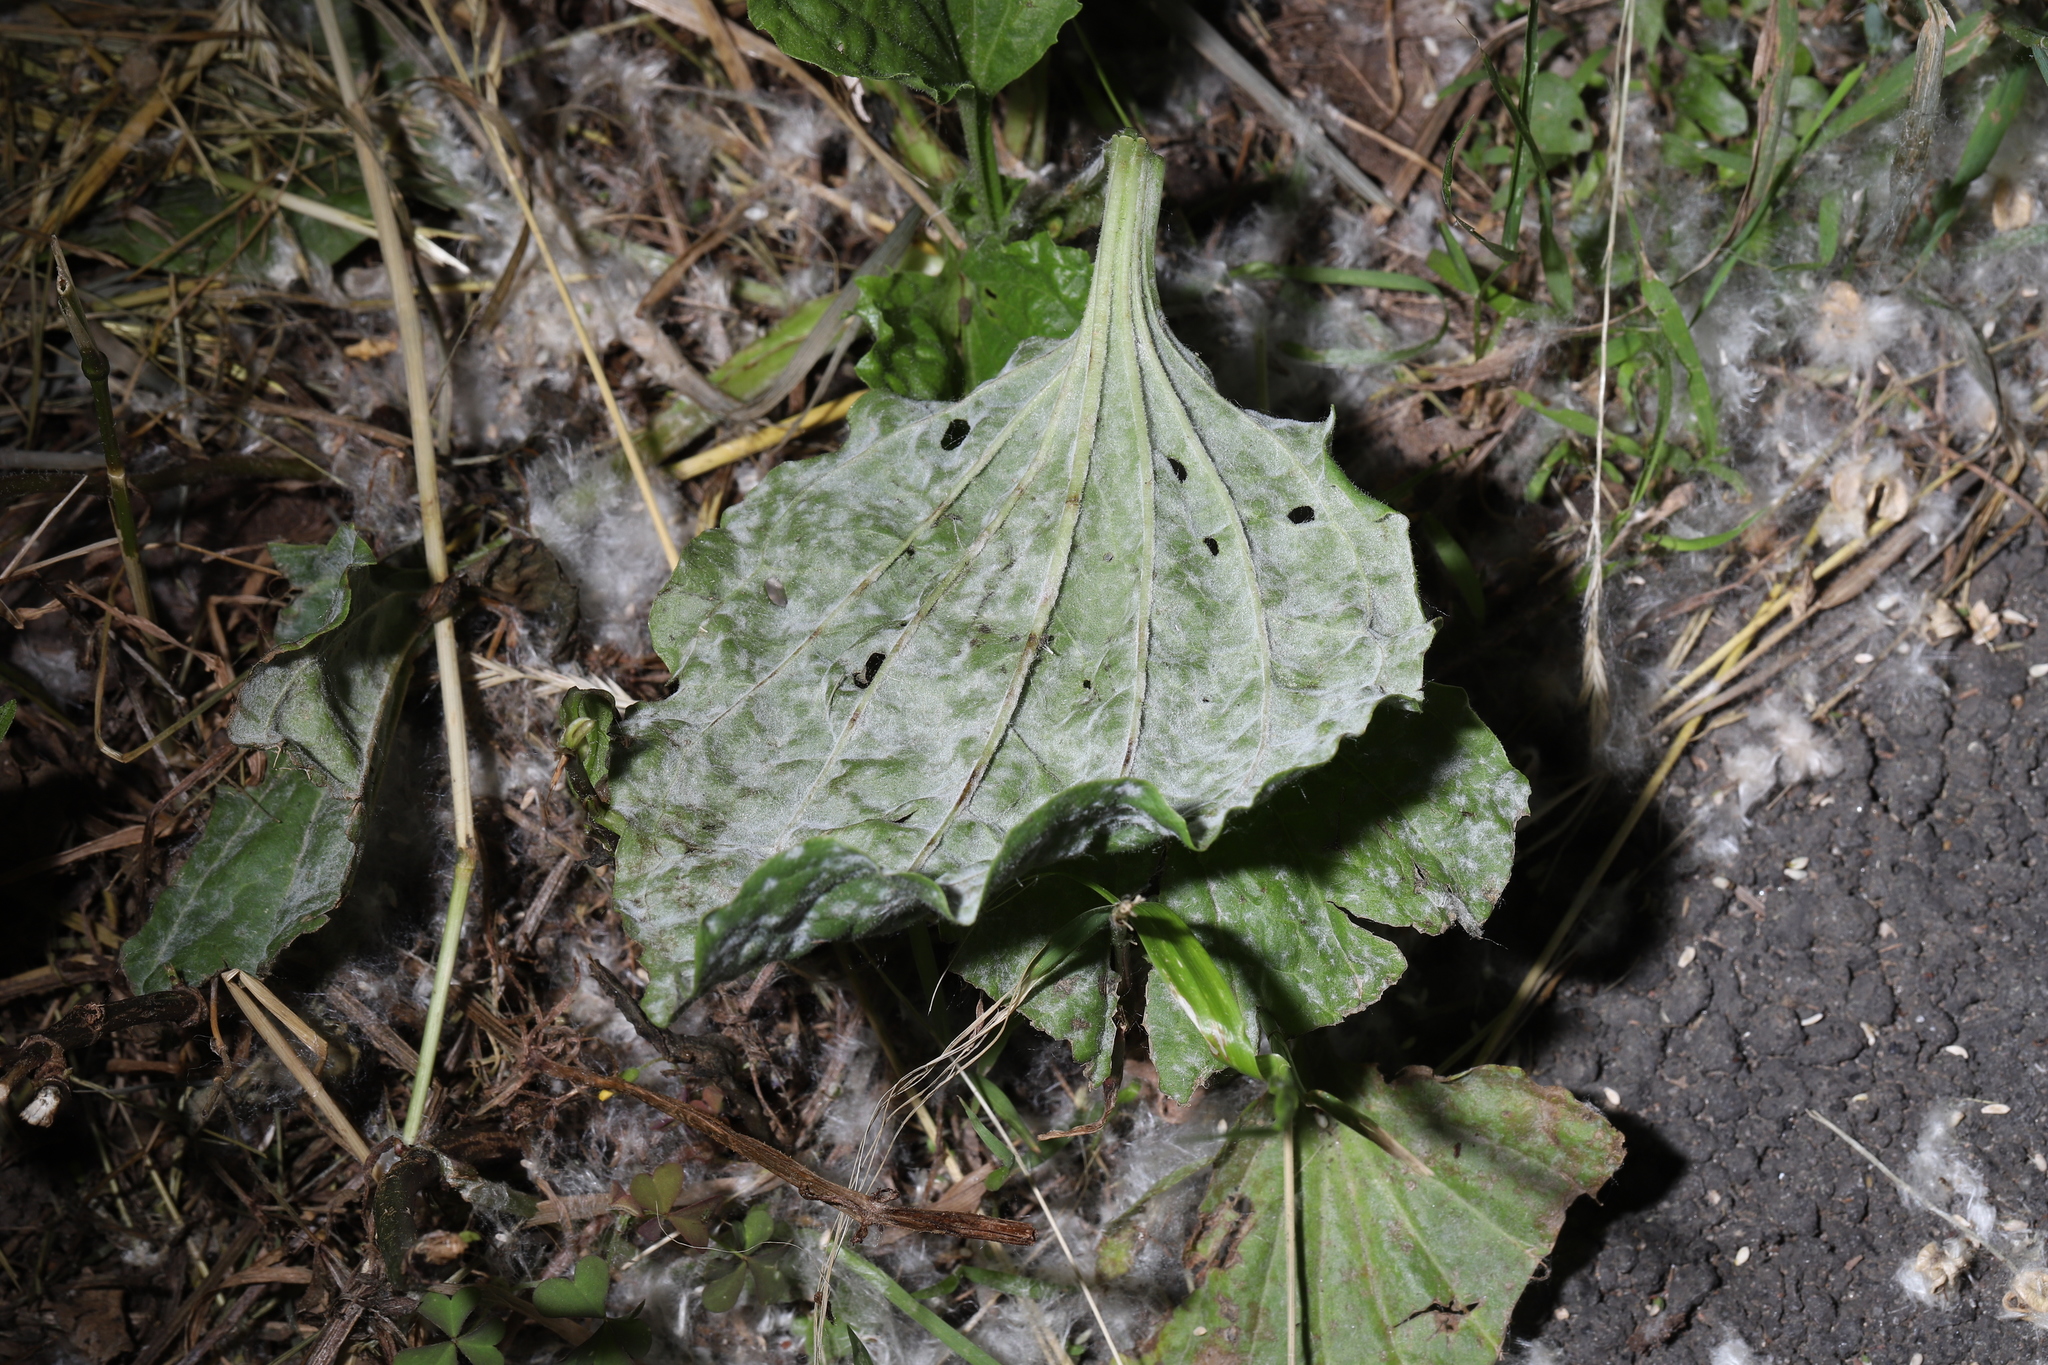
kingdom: Fungi
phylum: Ascomycota
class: Leotiomycetes
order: Helotiales
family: Erysiphaceae
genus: Golovinomyces
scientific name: Golovinomyces sordidus
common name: Plantain mildew
